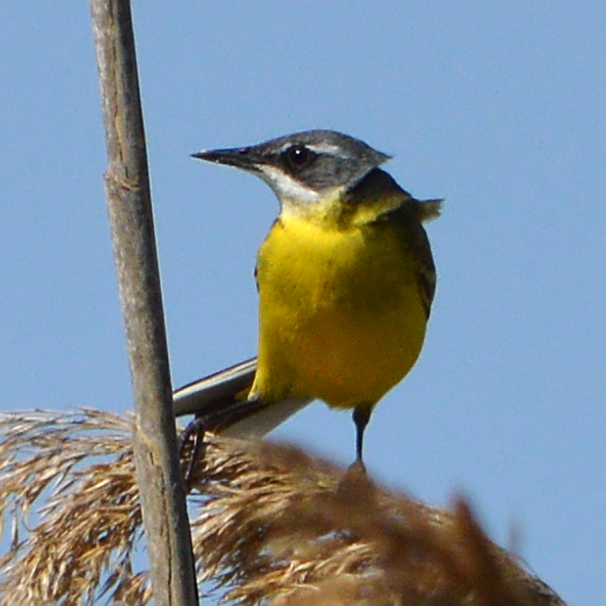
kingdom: Animalia
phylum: Chordata
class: Aves
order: Passeriformes
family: Motacillidae
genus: Motacilla
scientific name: Motacilla flava
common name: Western yellow wagtail
